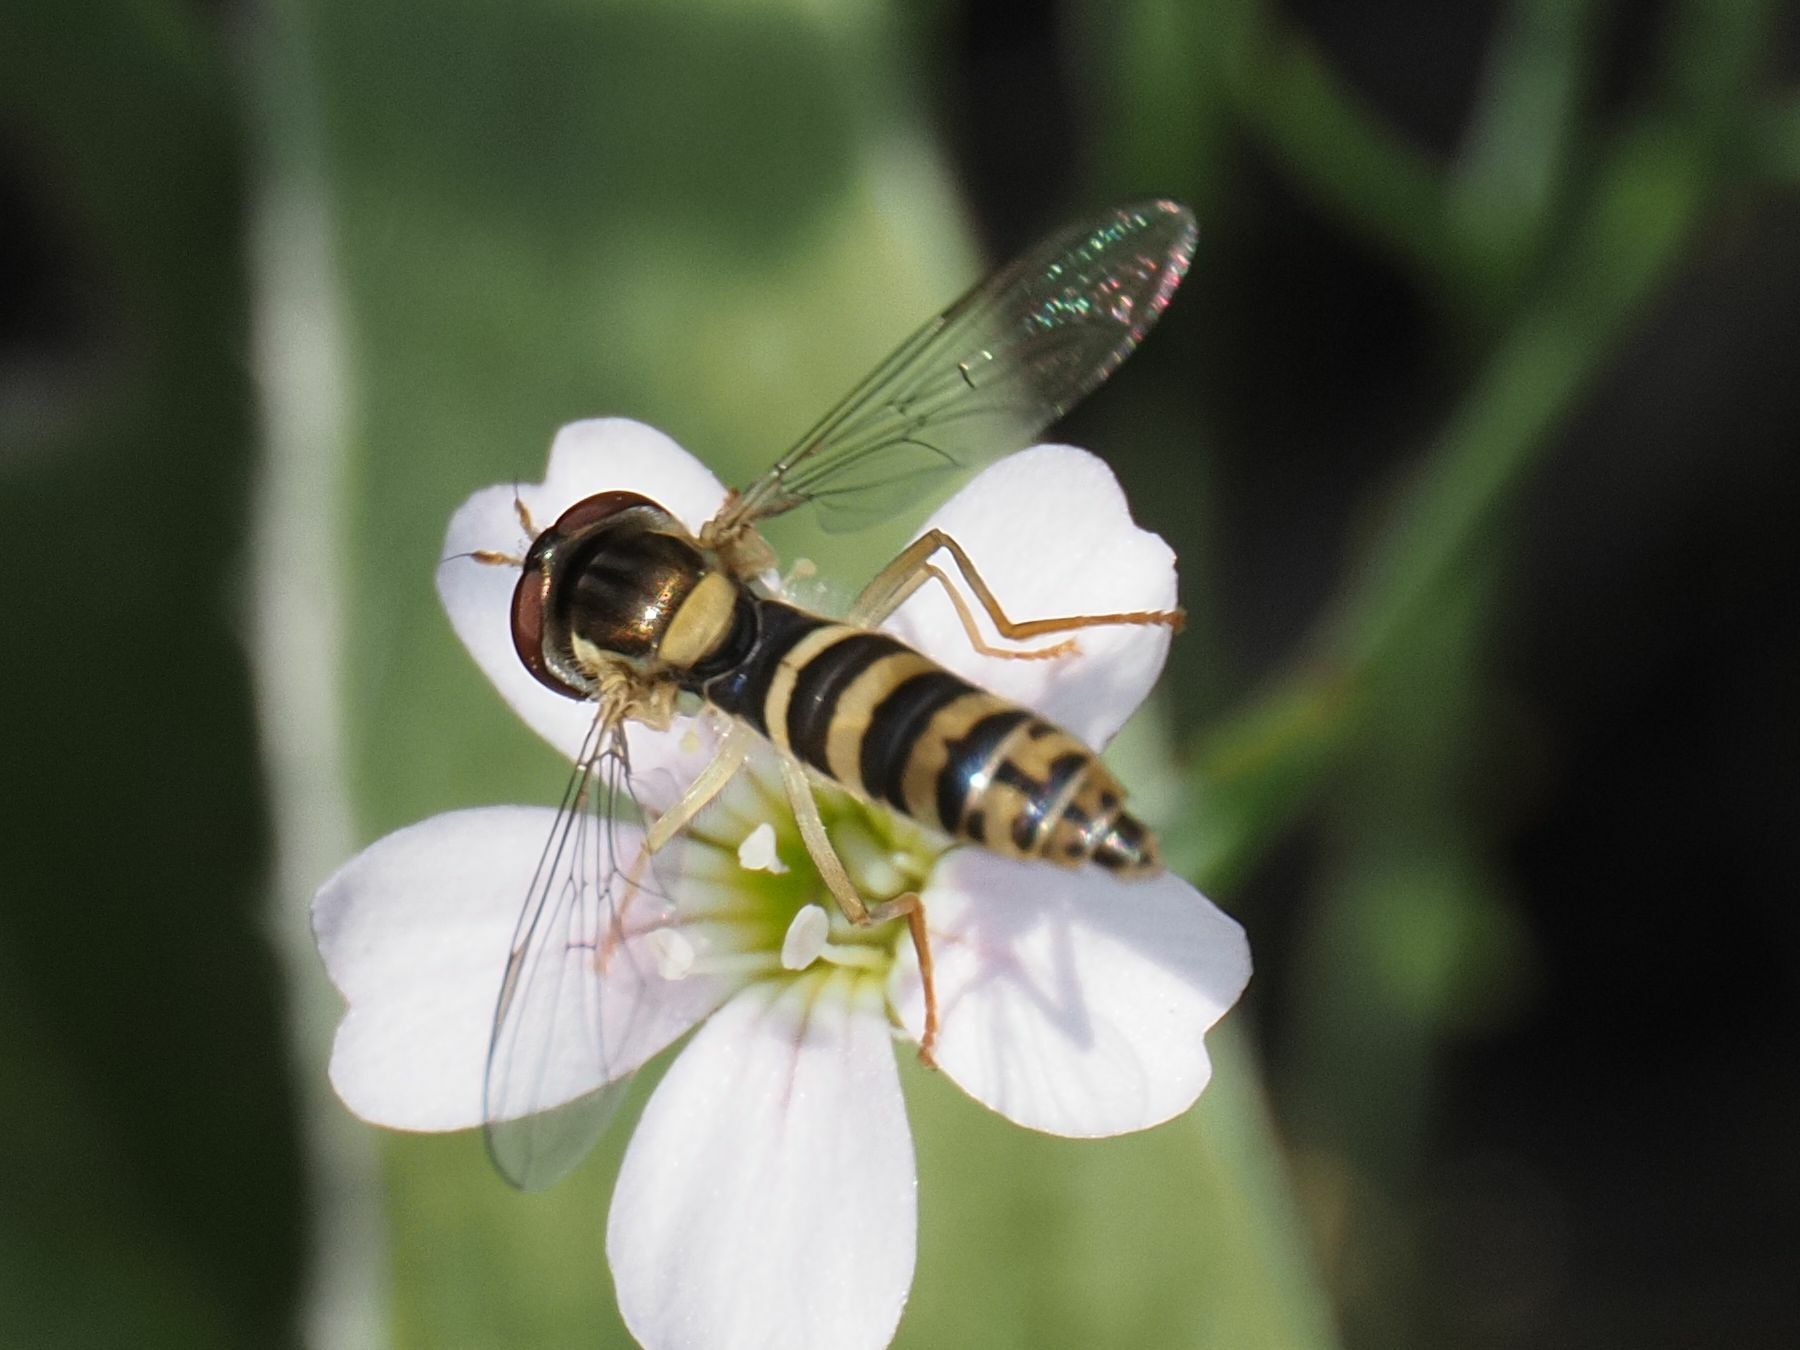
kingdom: Animalia
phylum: Arthropoda
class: Insecta
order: Diptera
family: Syrphidae
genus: Sphaerophoria
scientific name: Sphaerophoria
